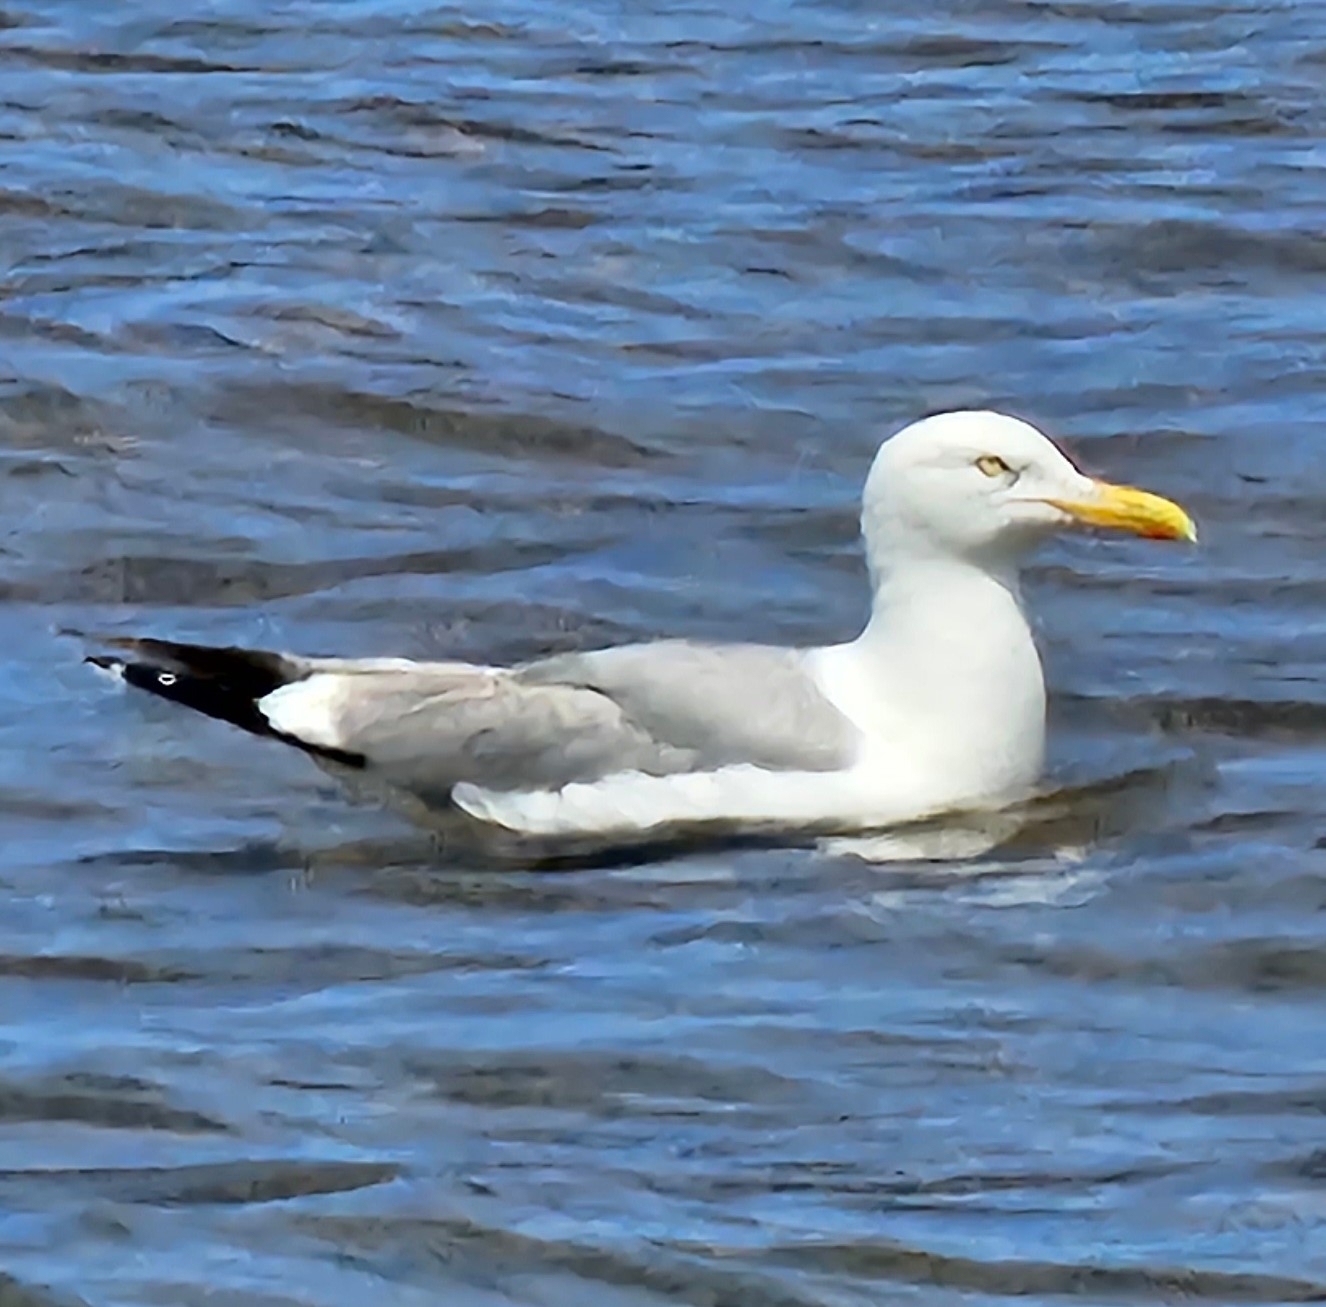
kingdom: Animalia
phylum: Chordata
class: Aves
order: Charadriiformes
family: Laridae
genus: Larus
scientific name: Larus argentatus
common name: Herring gull
